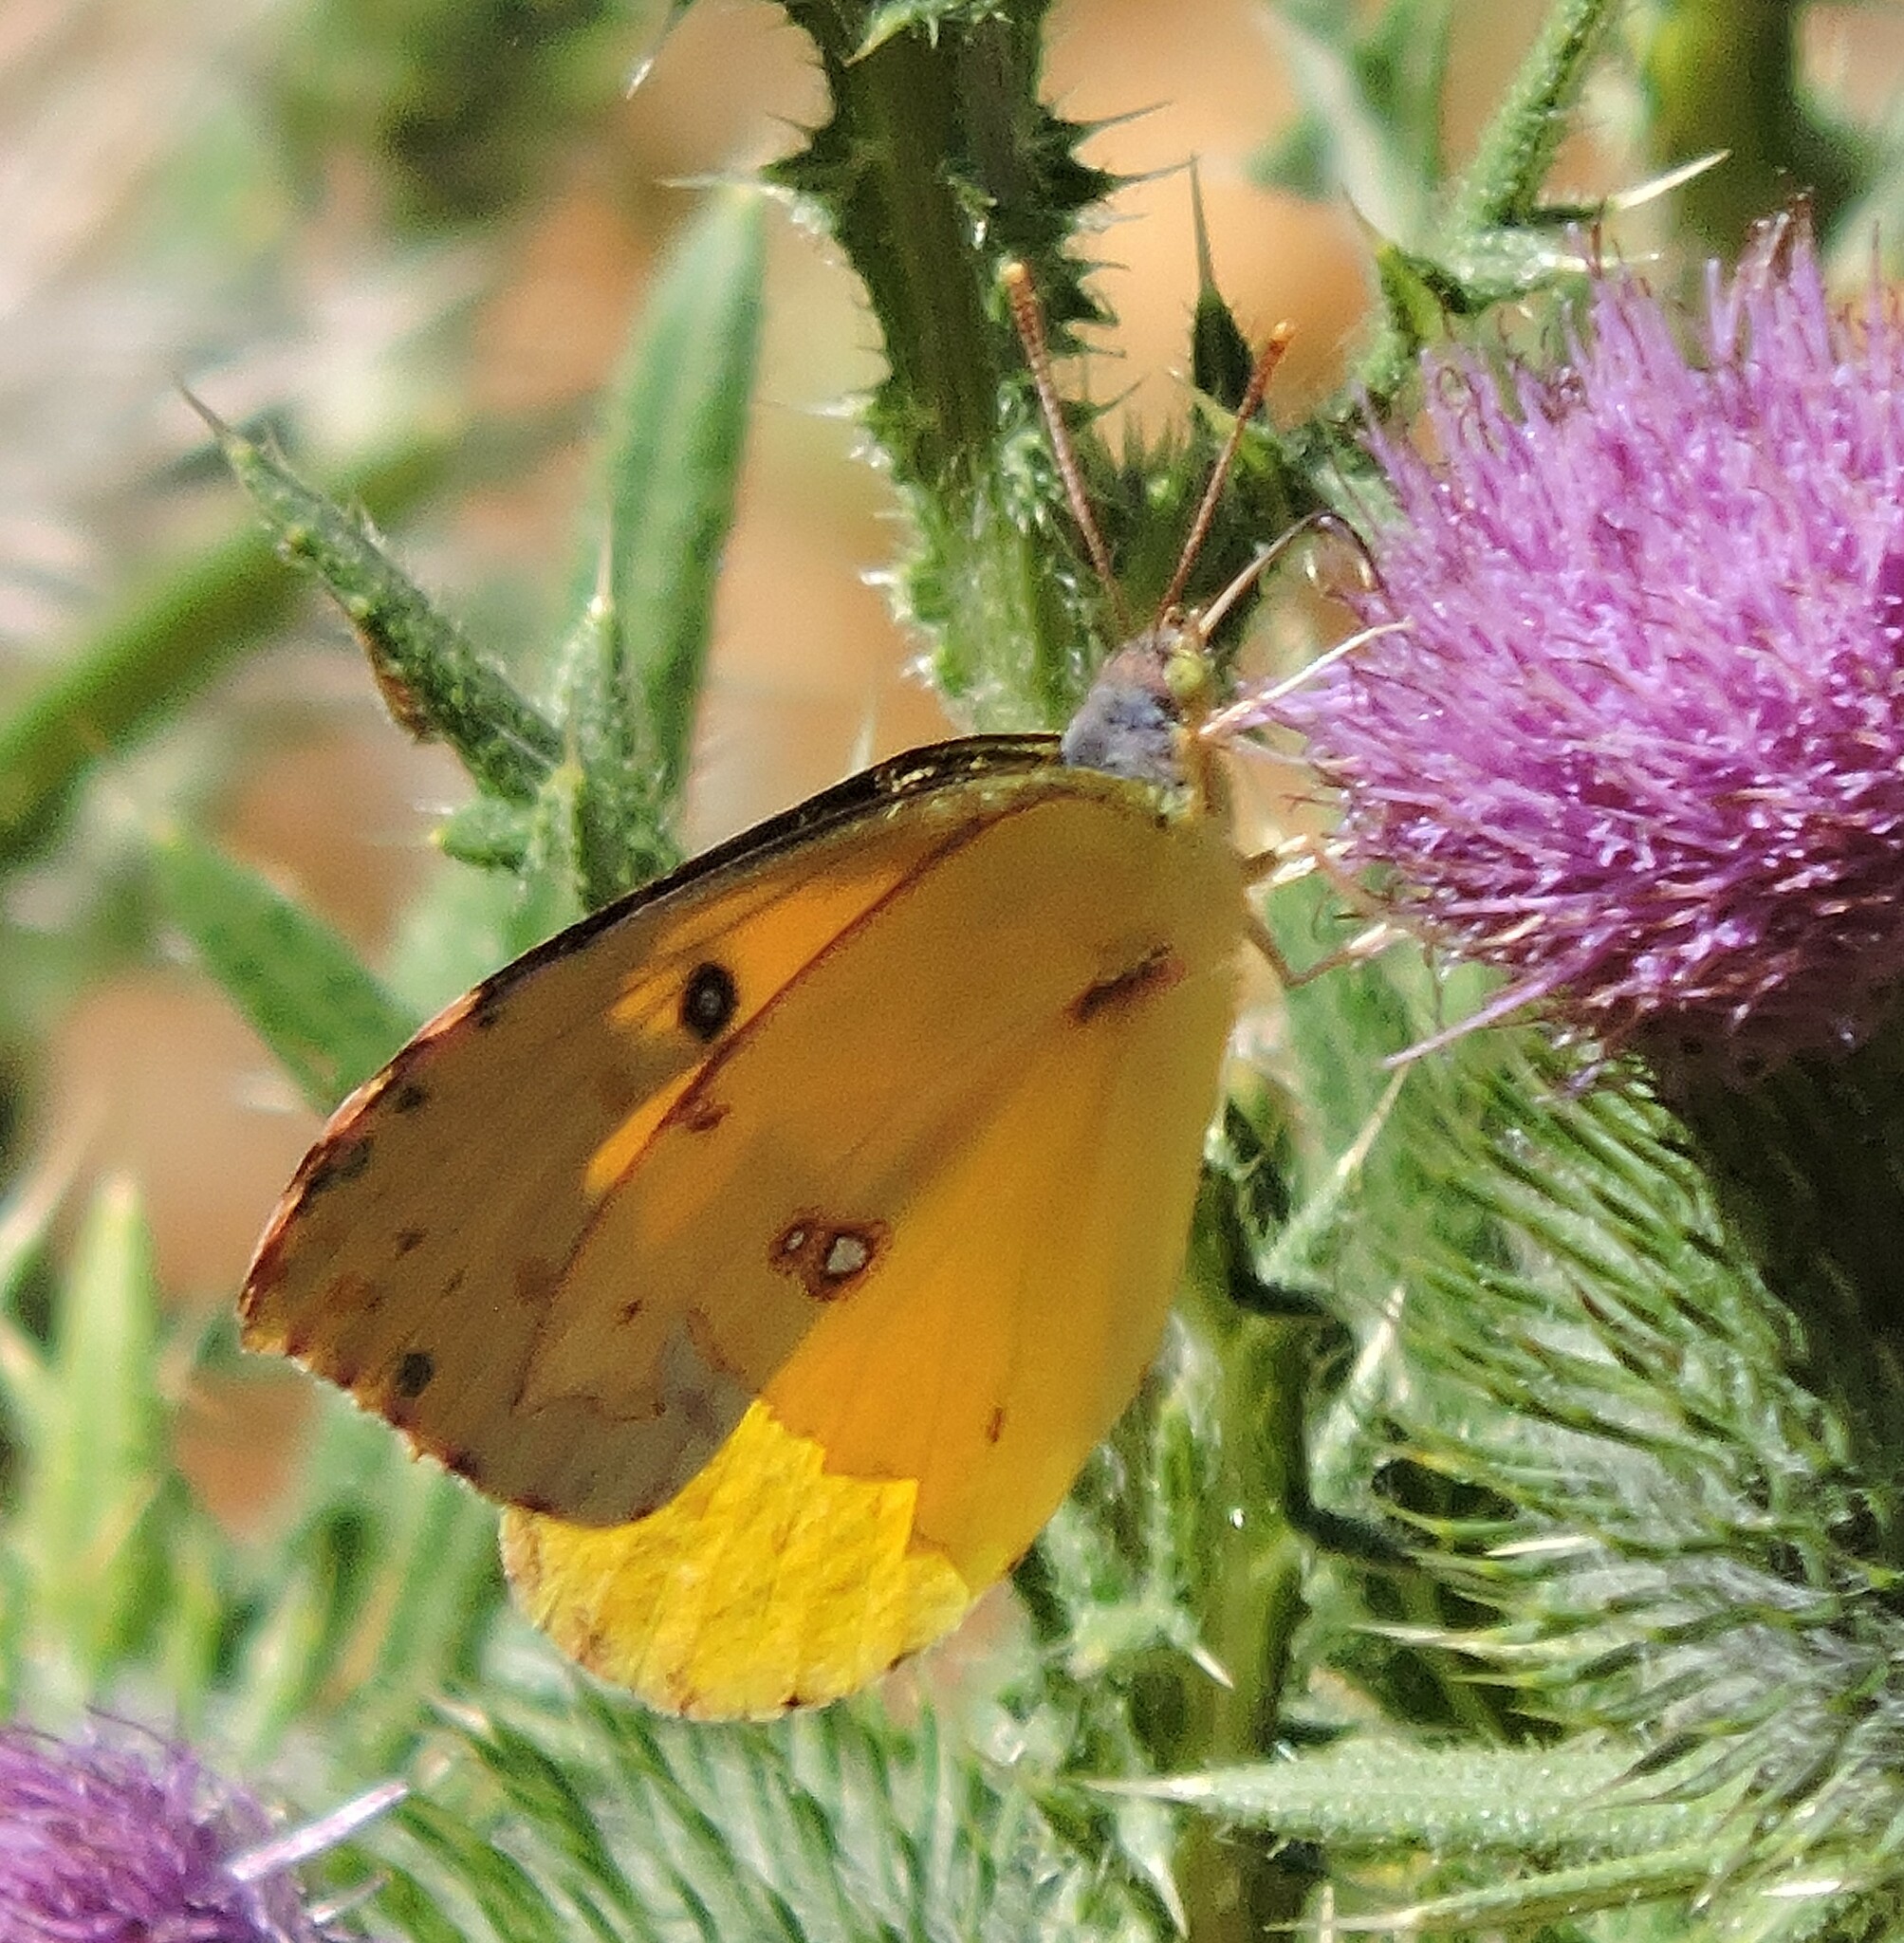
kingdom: Animalia
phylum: Arthropoda
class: Insecta
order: Lepidoptera
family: Pieridae
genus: Zerene
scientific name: Zerene eurydice
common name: California dogface
